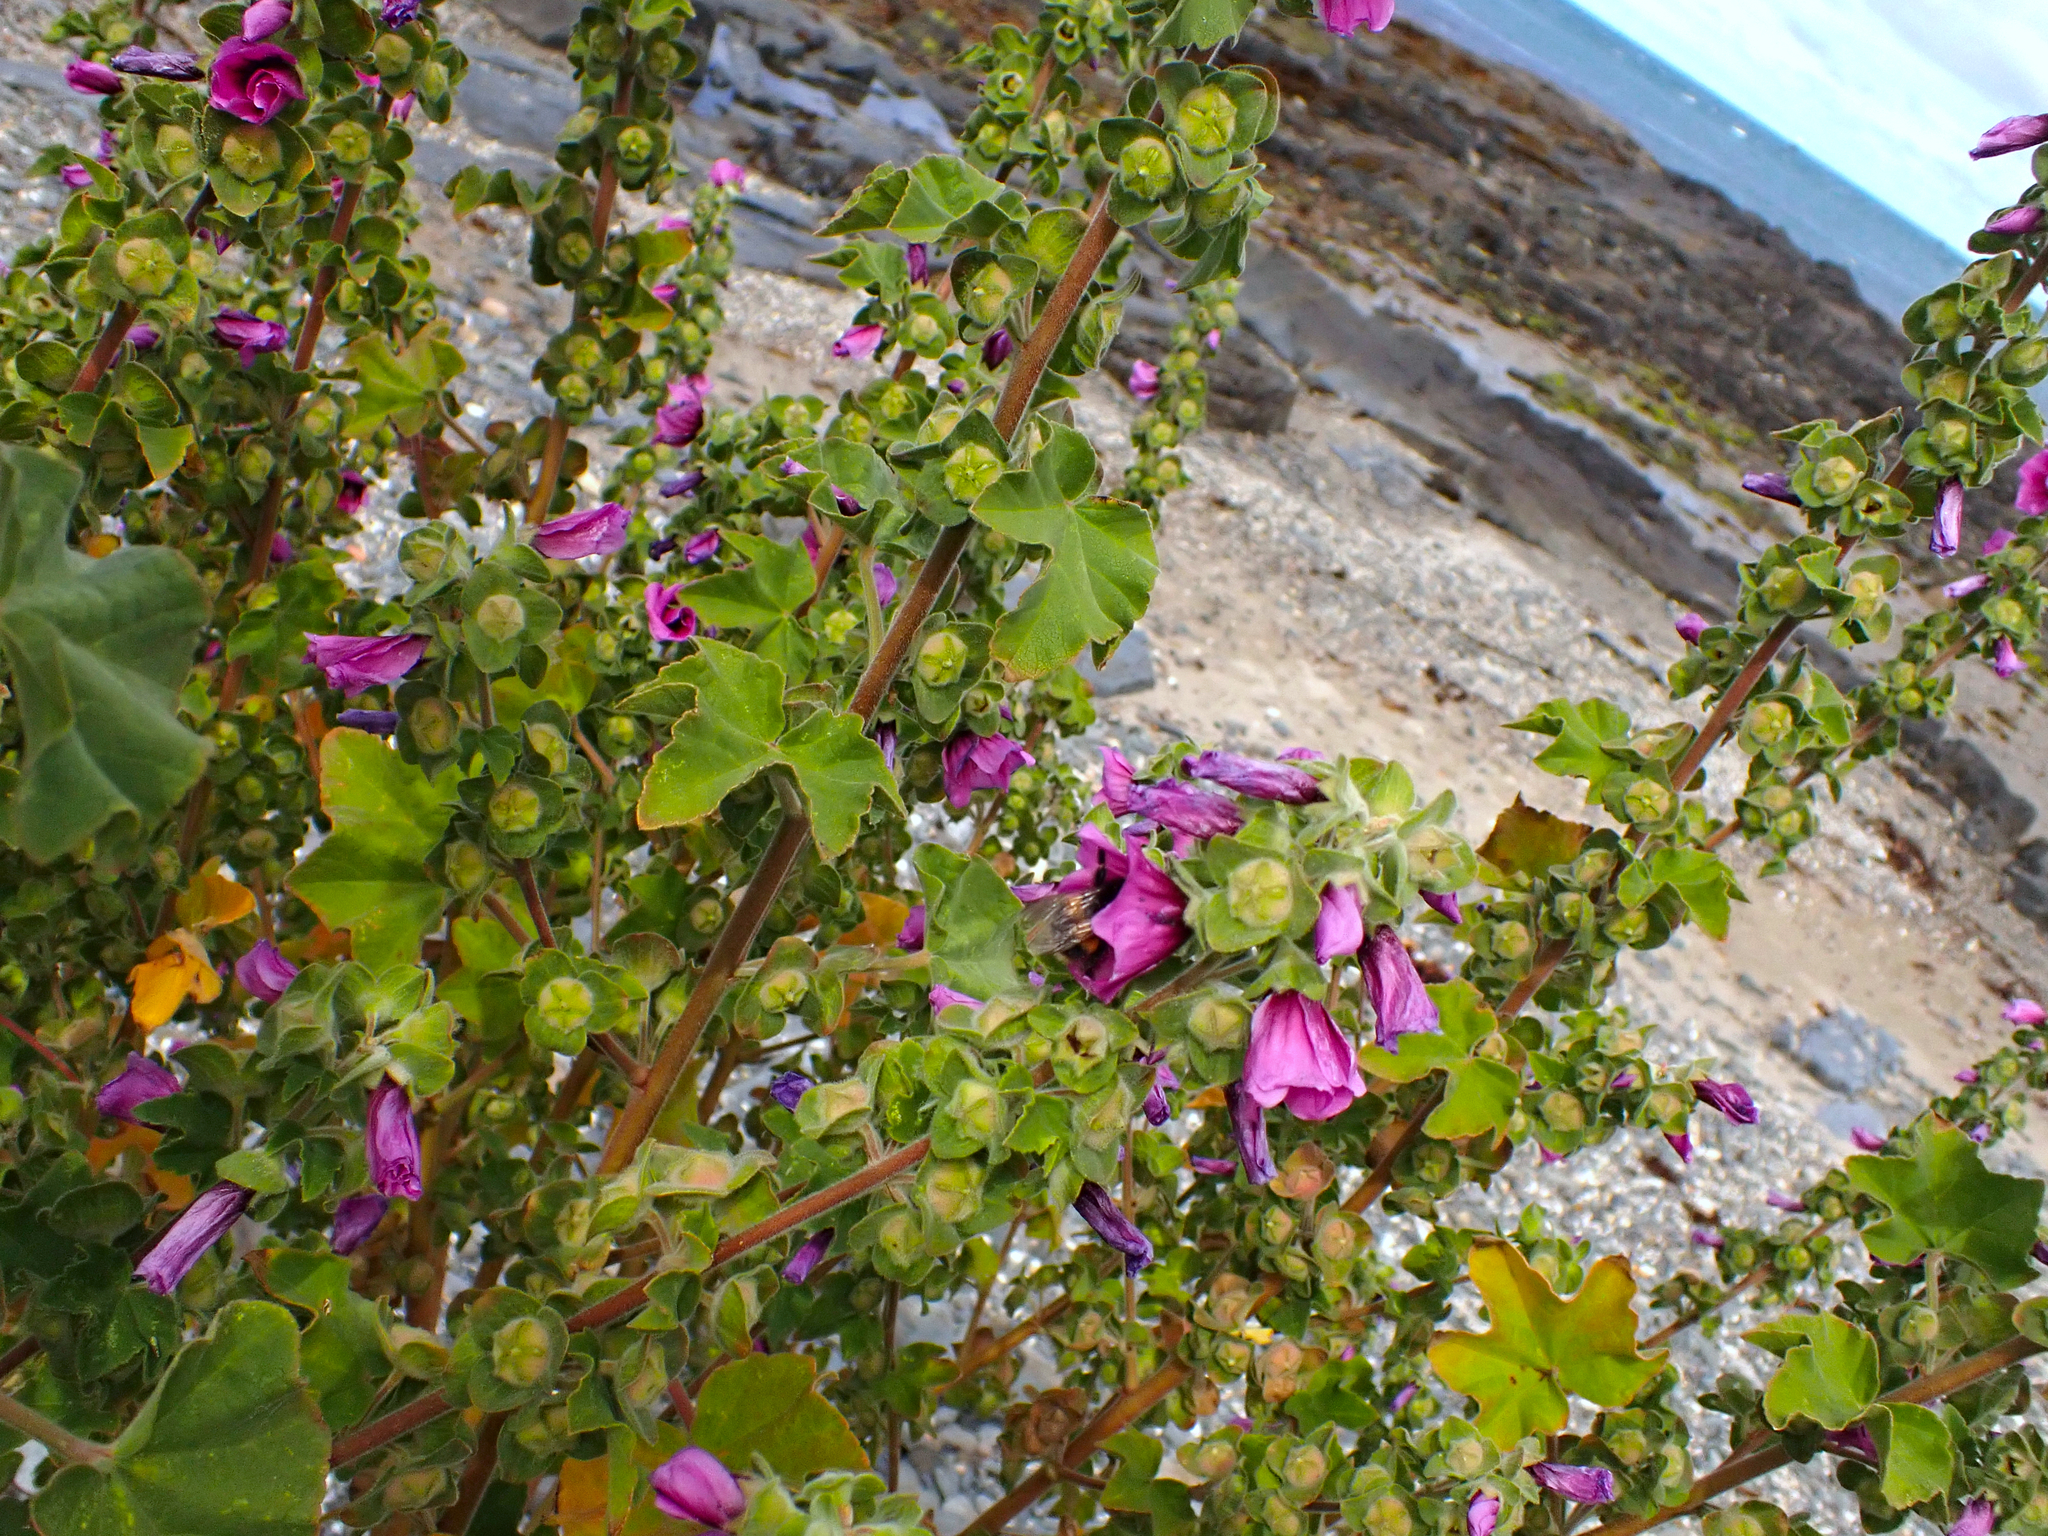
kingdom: Plantae
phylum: Tracheophyta
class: Magnoliopsida
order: Malvales
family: Malvaceae
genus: Malva
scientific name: Malva arborea
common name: Tree mallow
